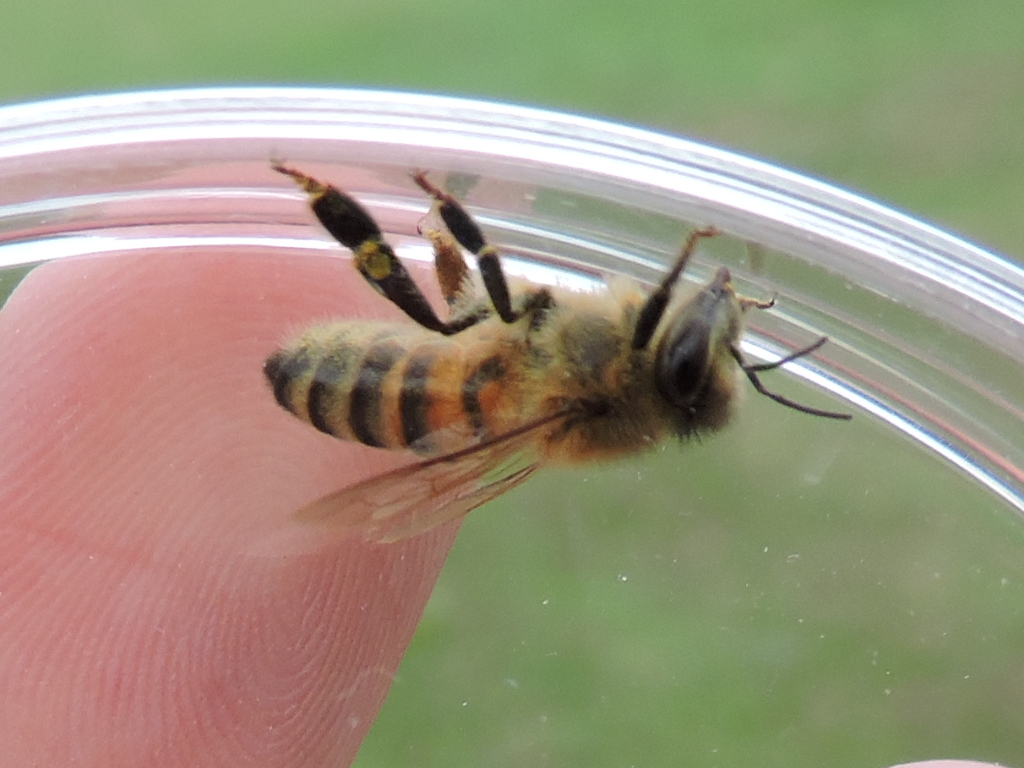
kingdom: Animalia
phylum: Arthropoda
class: Insecta
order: Hymenoptera
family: Apidae
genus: Apis
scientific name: Apis mellifera
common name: Honey bee
